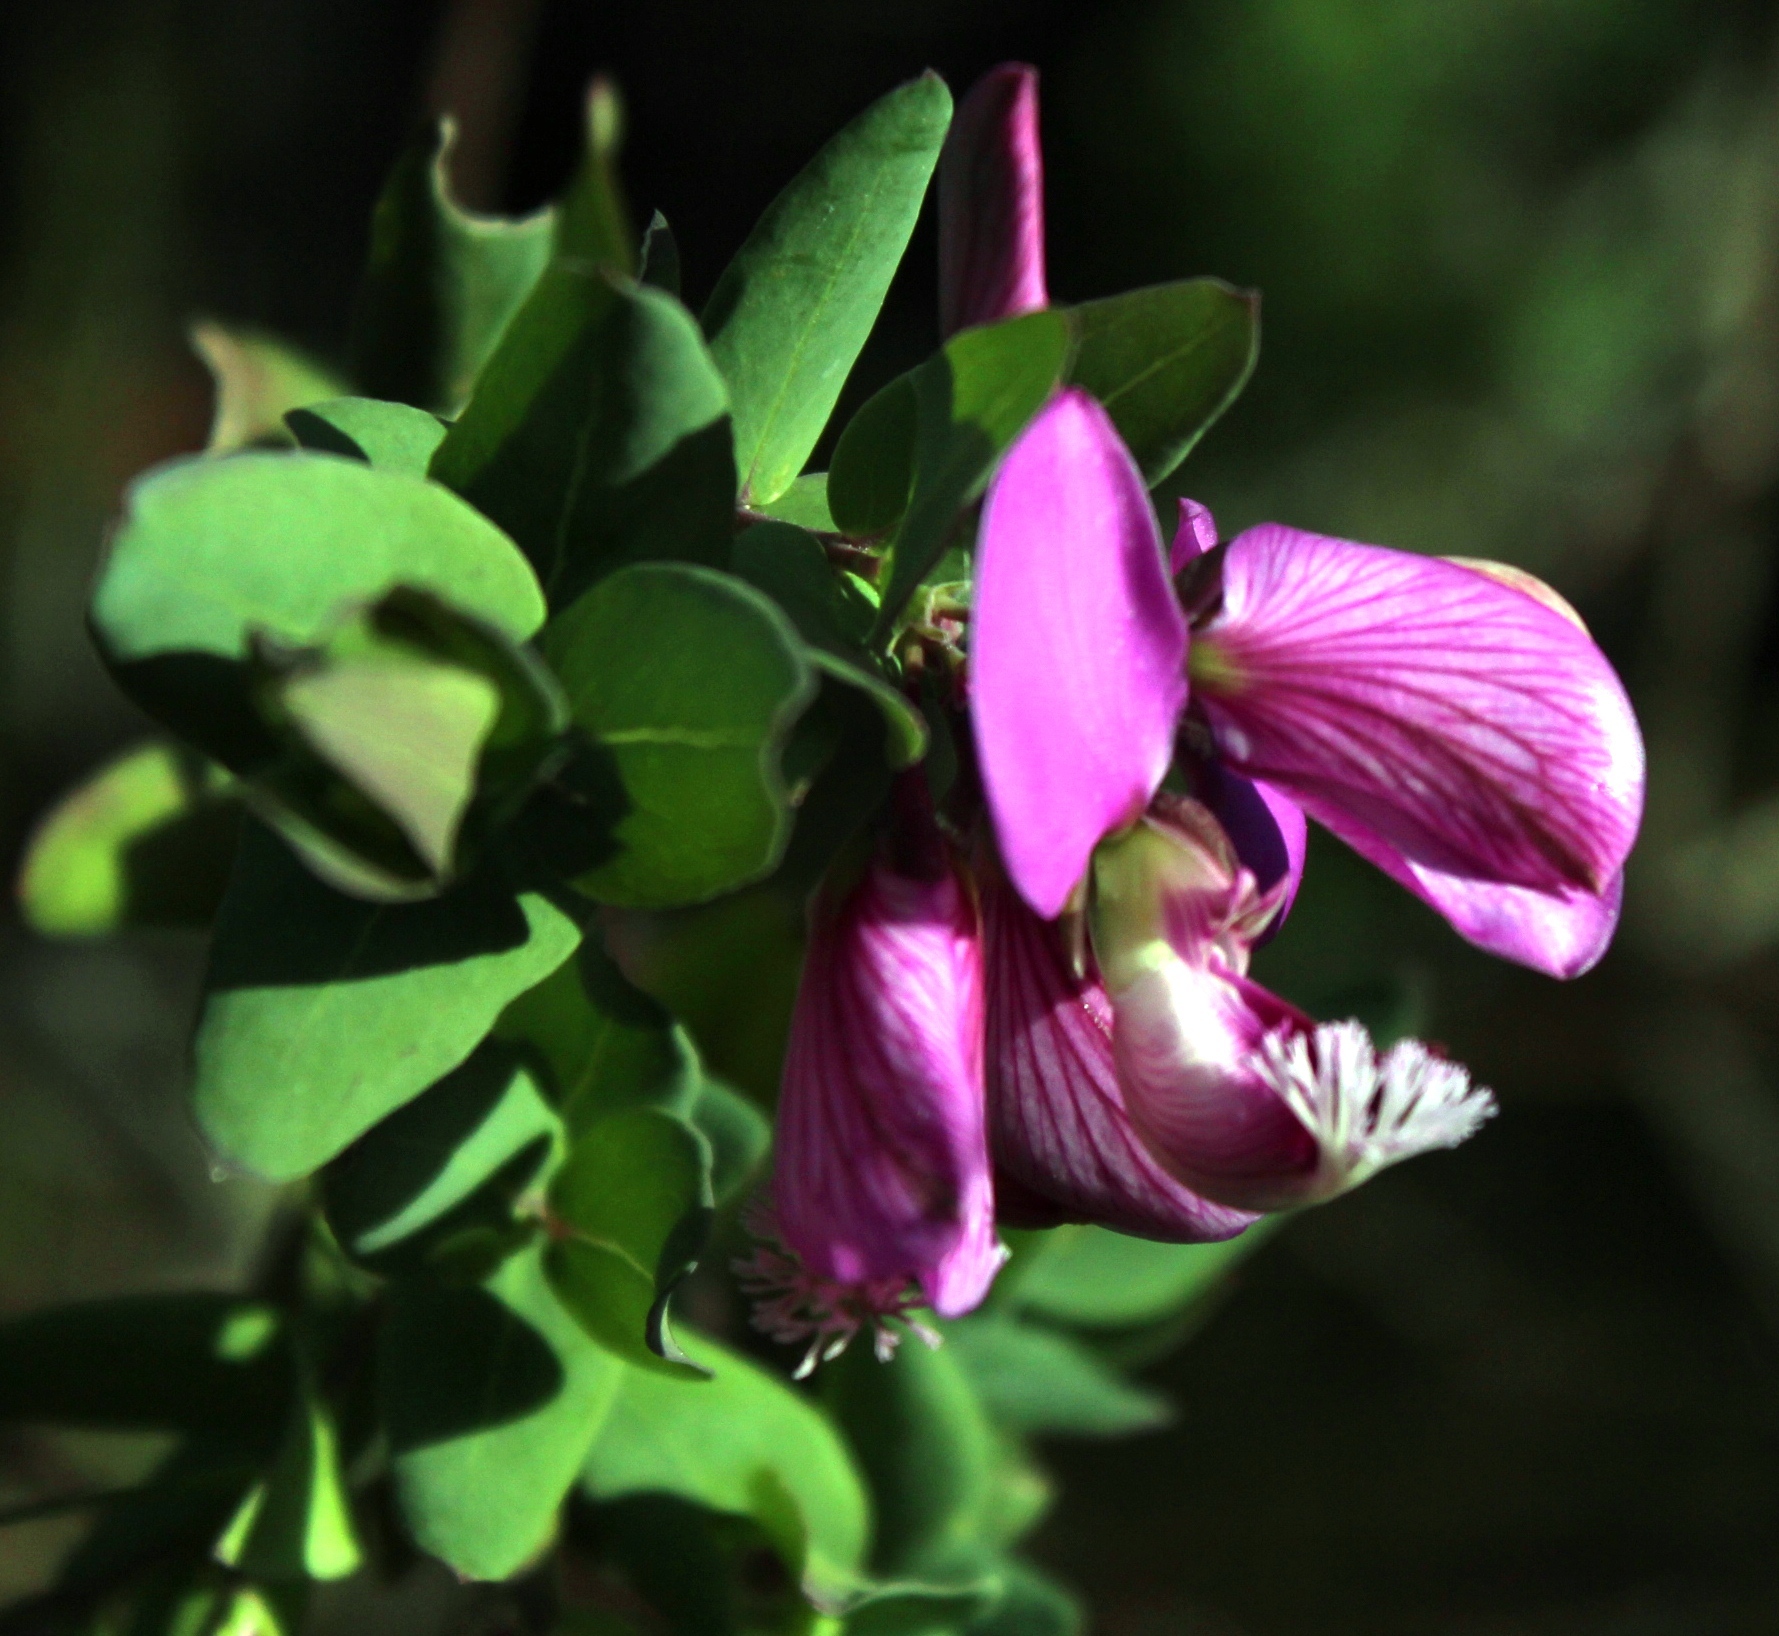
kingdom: Plantae
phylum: Tracheophyta
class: Magnoliopsida
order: Fabales
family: Polygalaceae
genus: Polygala
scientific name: Polygala myrtifolia
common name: Myrtle-leaf milkwort
